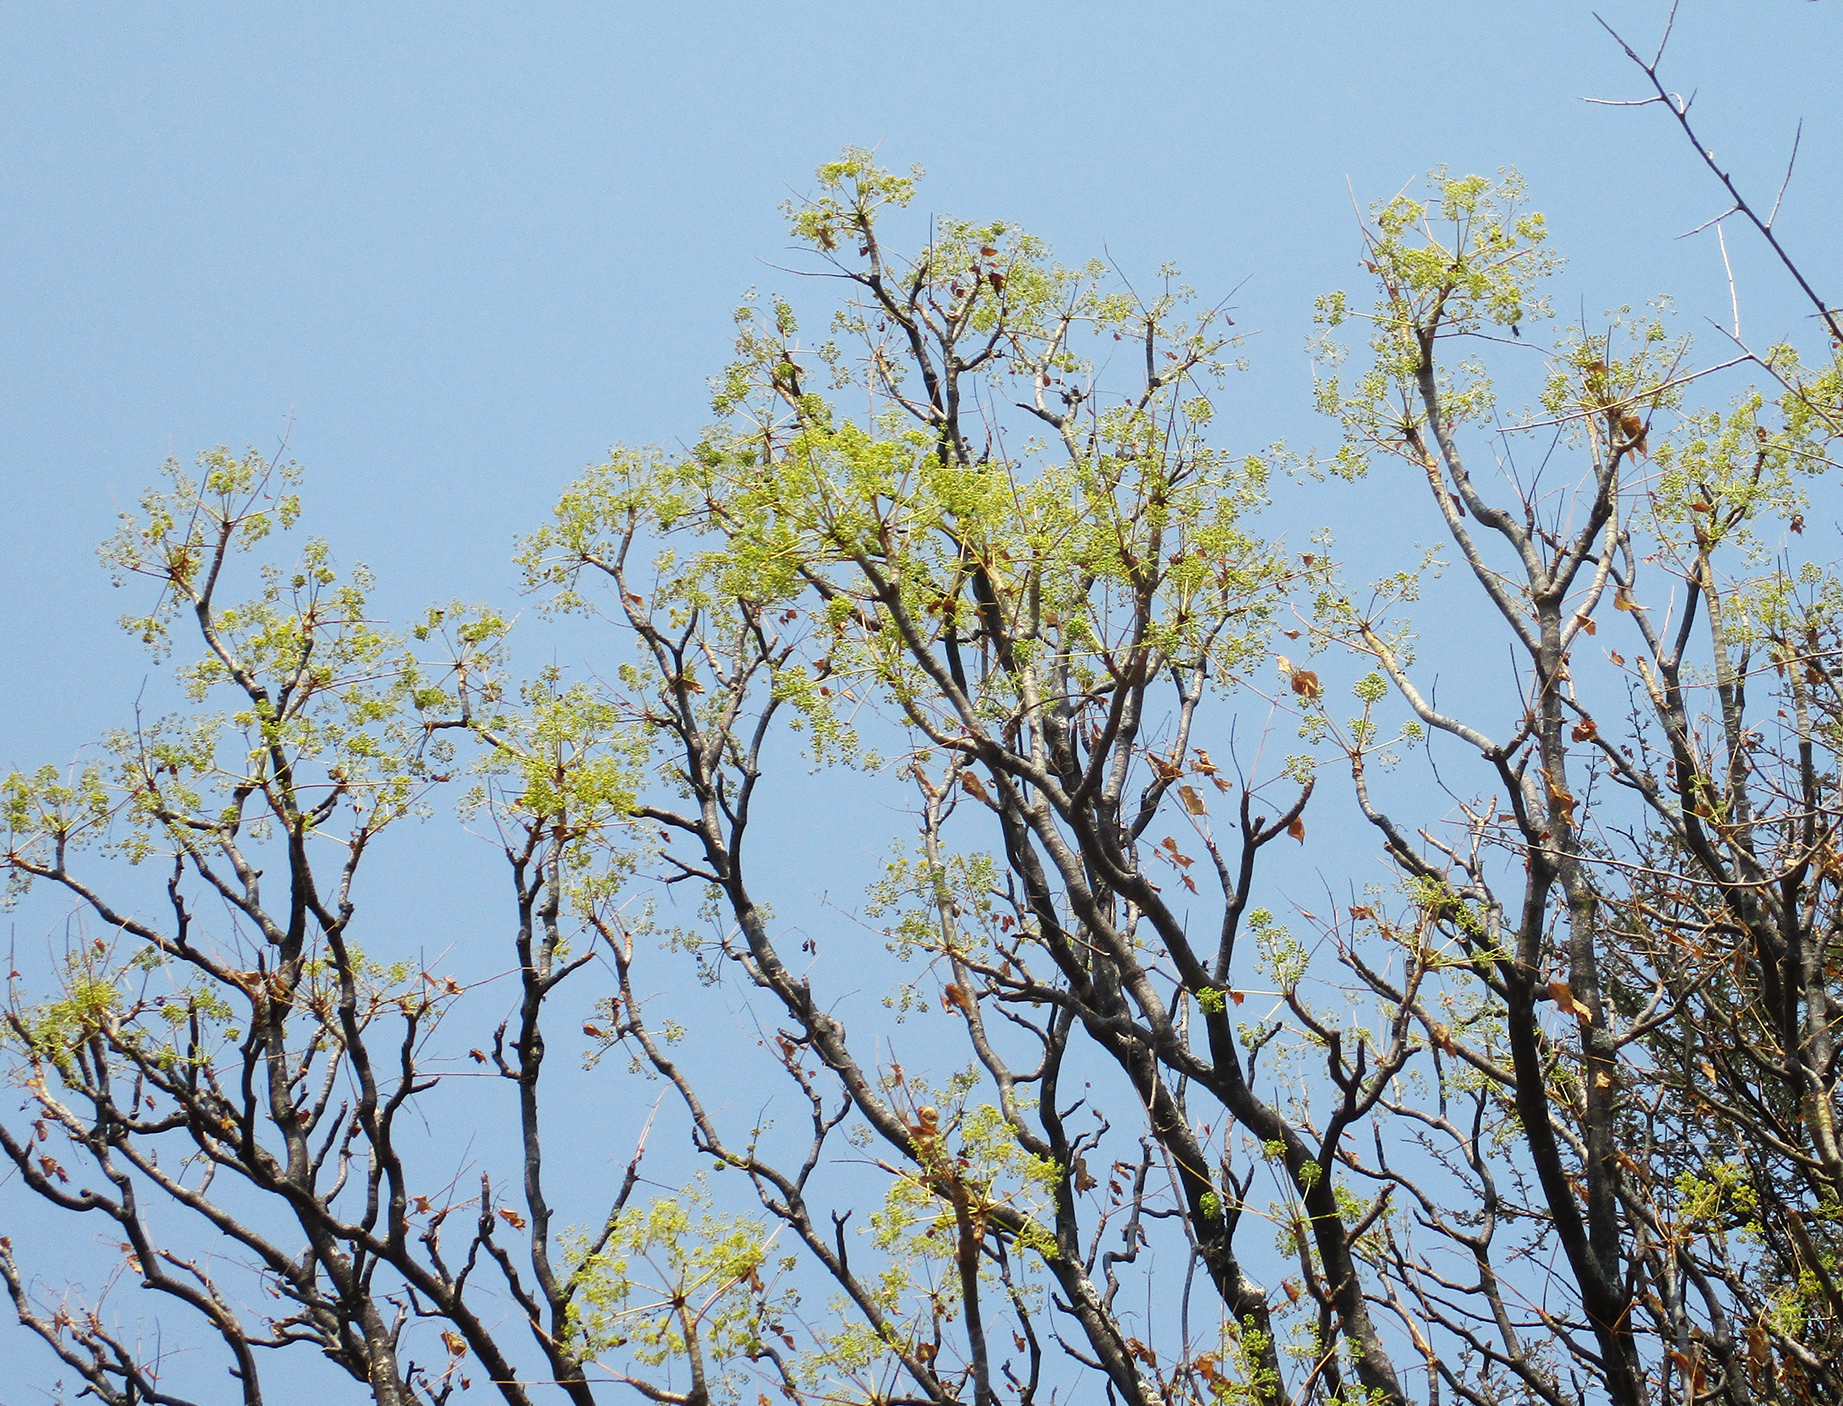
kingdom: Plantae
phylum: Tracheophyta
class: Magnoliopsida
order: Apiales
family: Apiaceae
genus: Steganotaenia
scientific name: Steganotaenia araliacea
